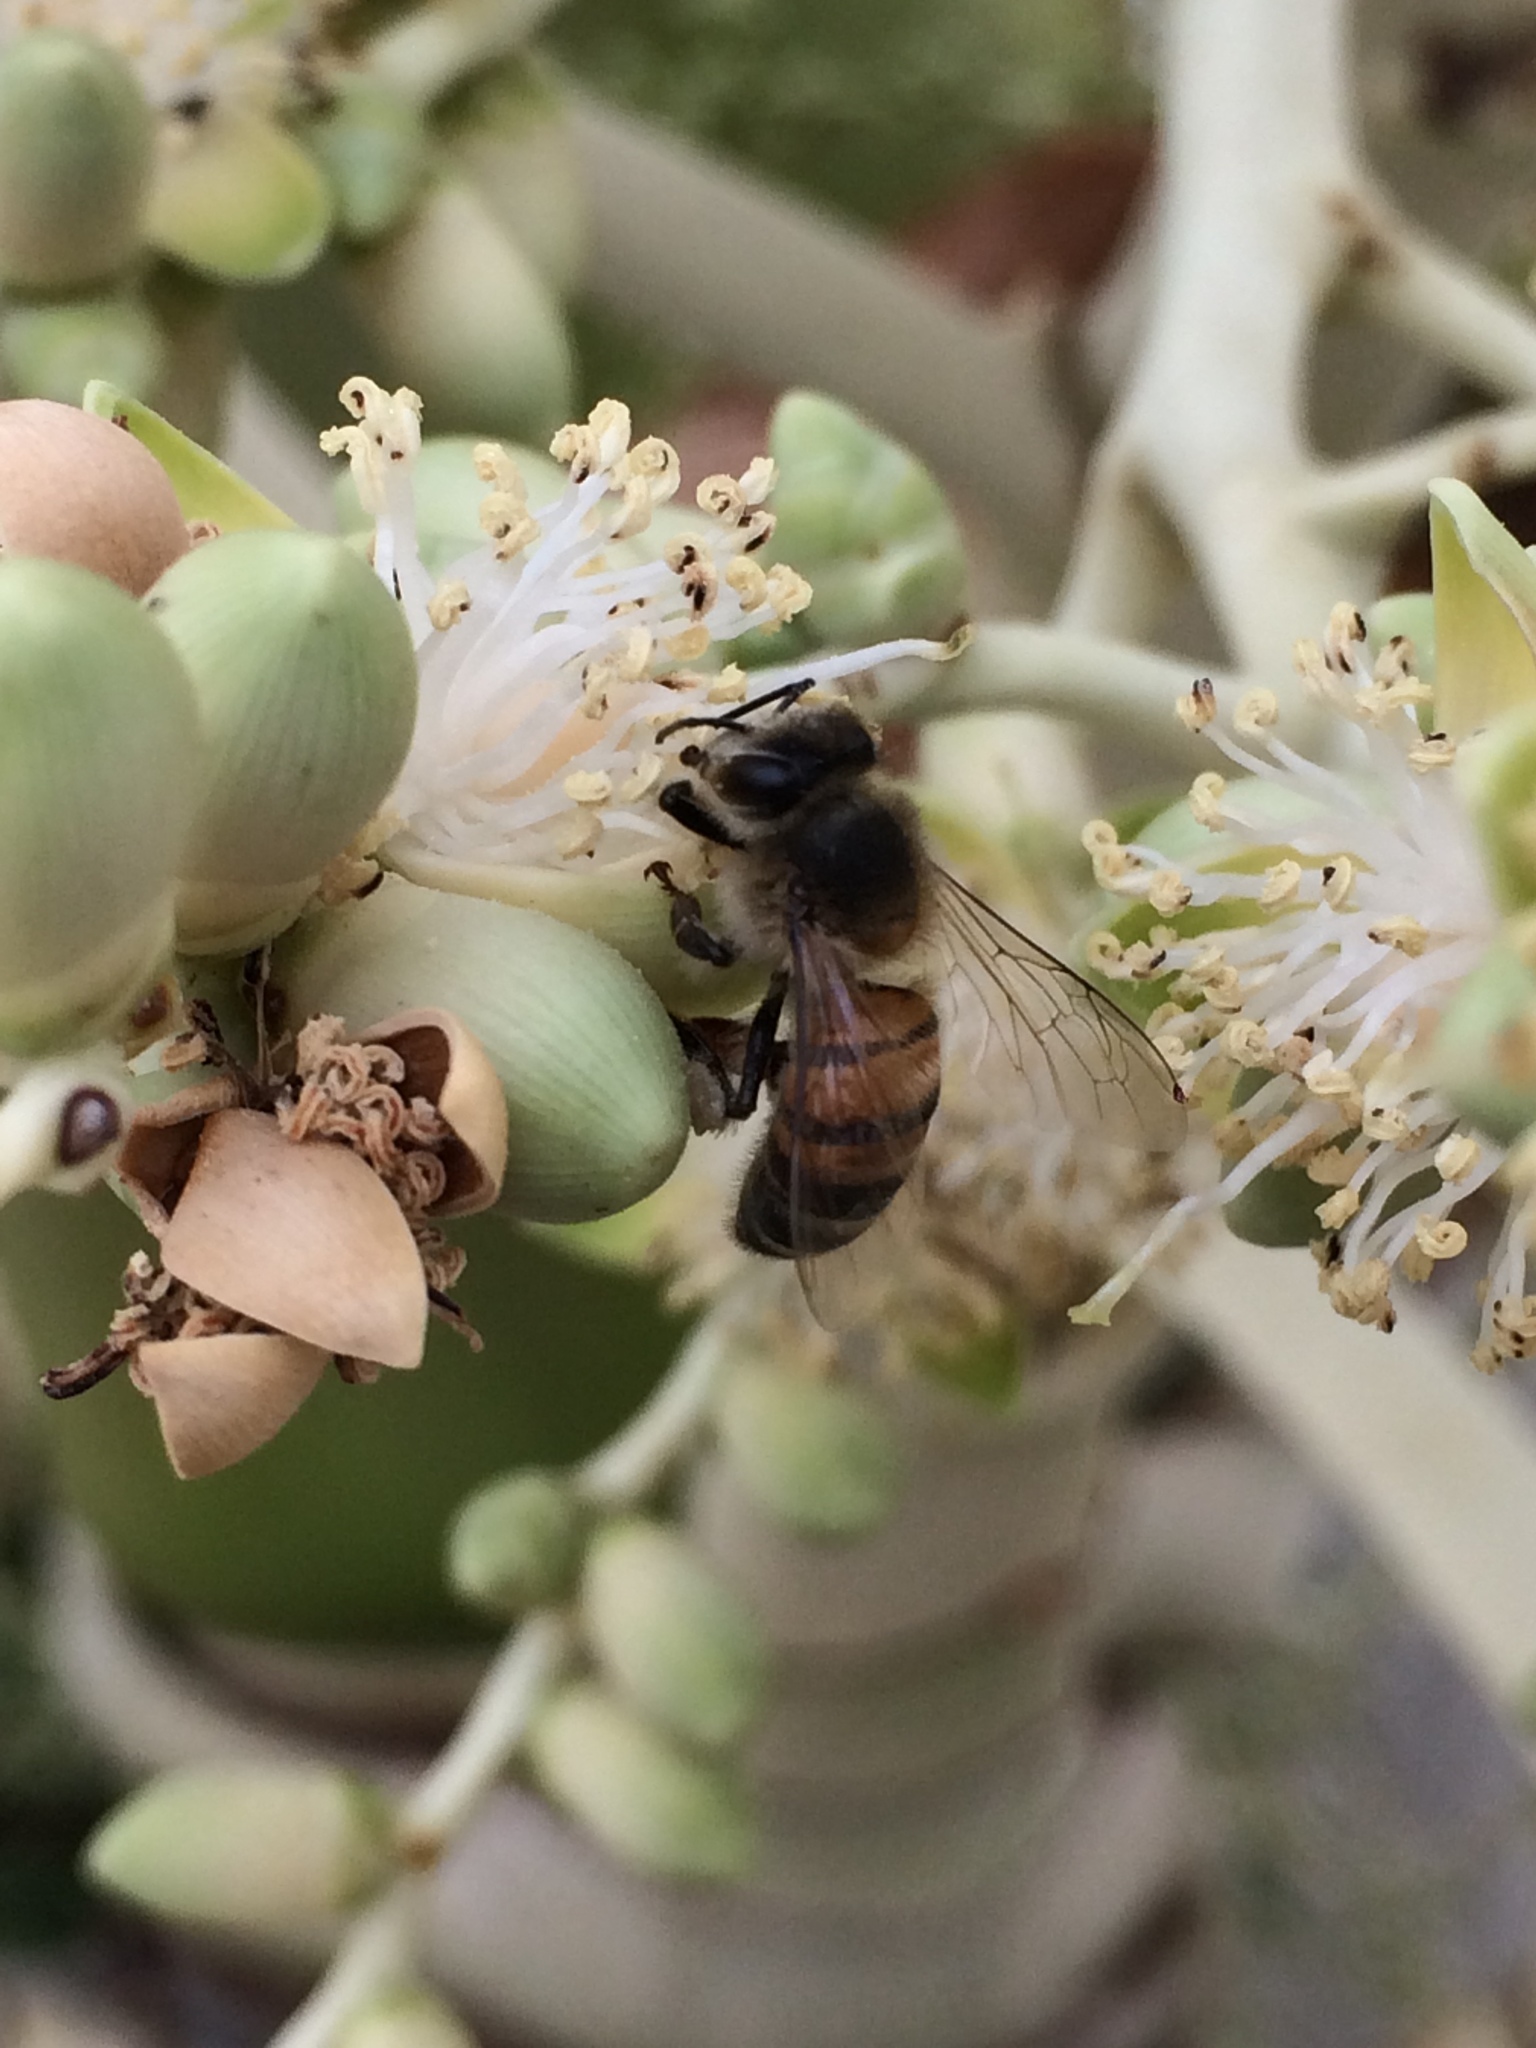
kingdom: Animalia
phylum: Arthropoda
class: Insecta
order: Hymenoptera
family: Apidae
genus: Apis
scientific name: Apis mellifera
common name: Honey bee
